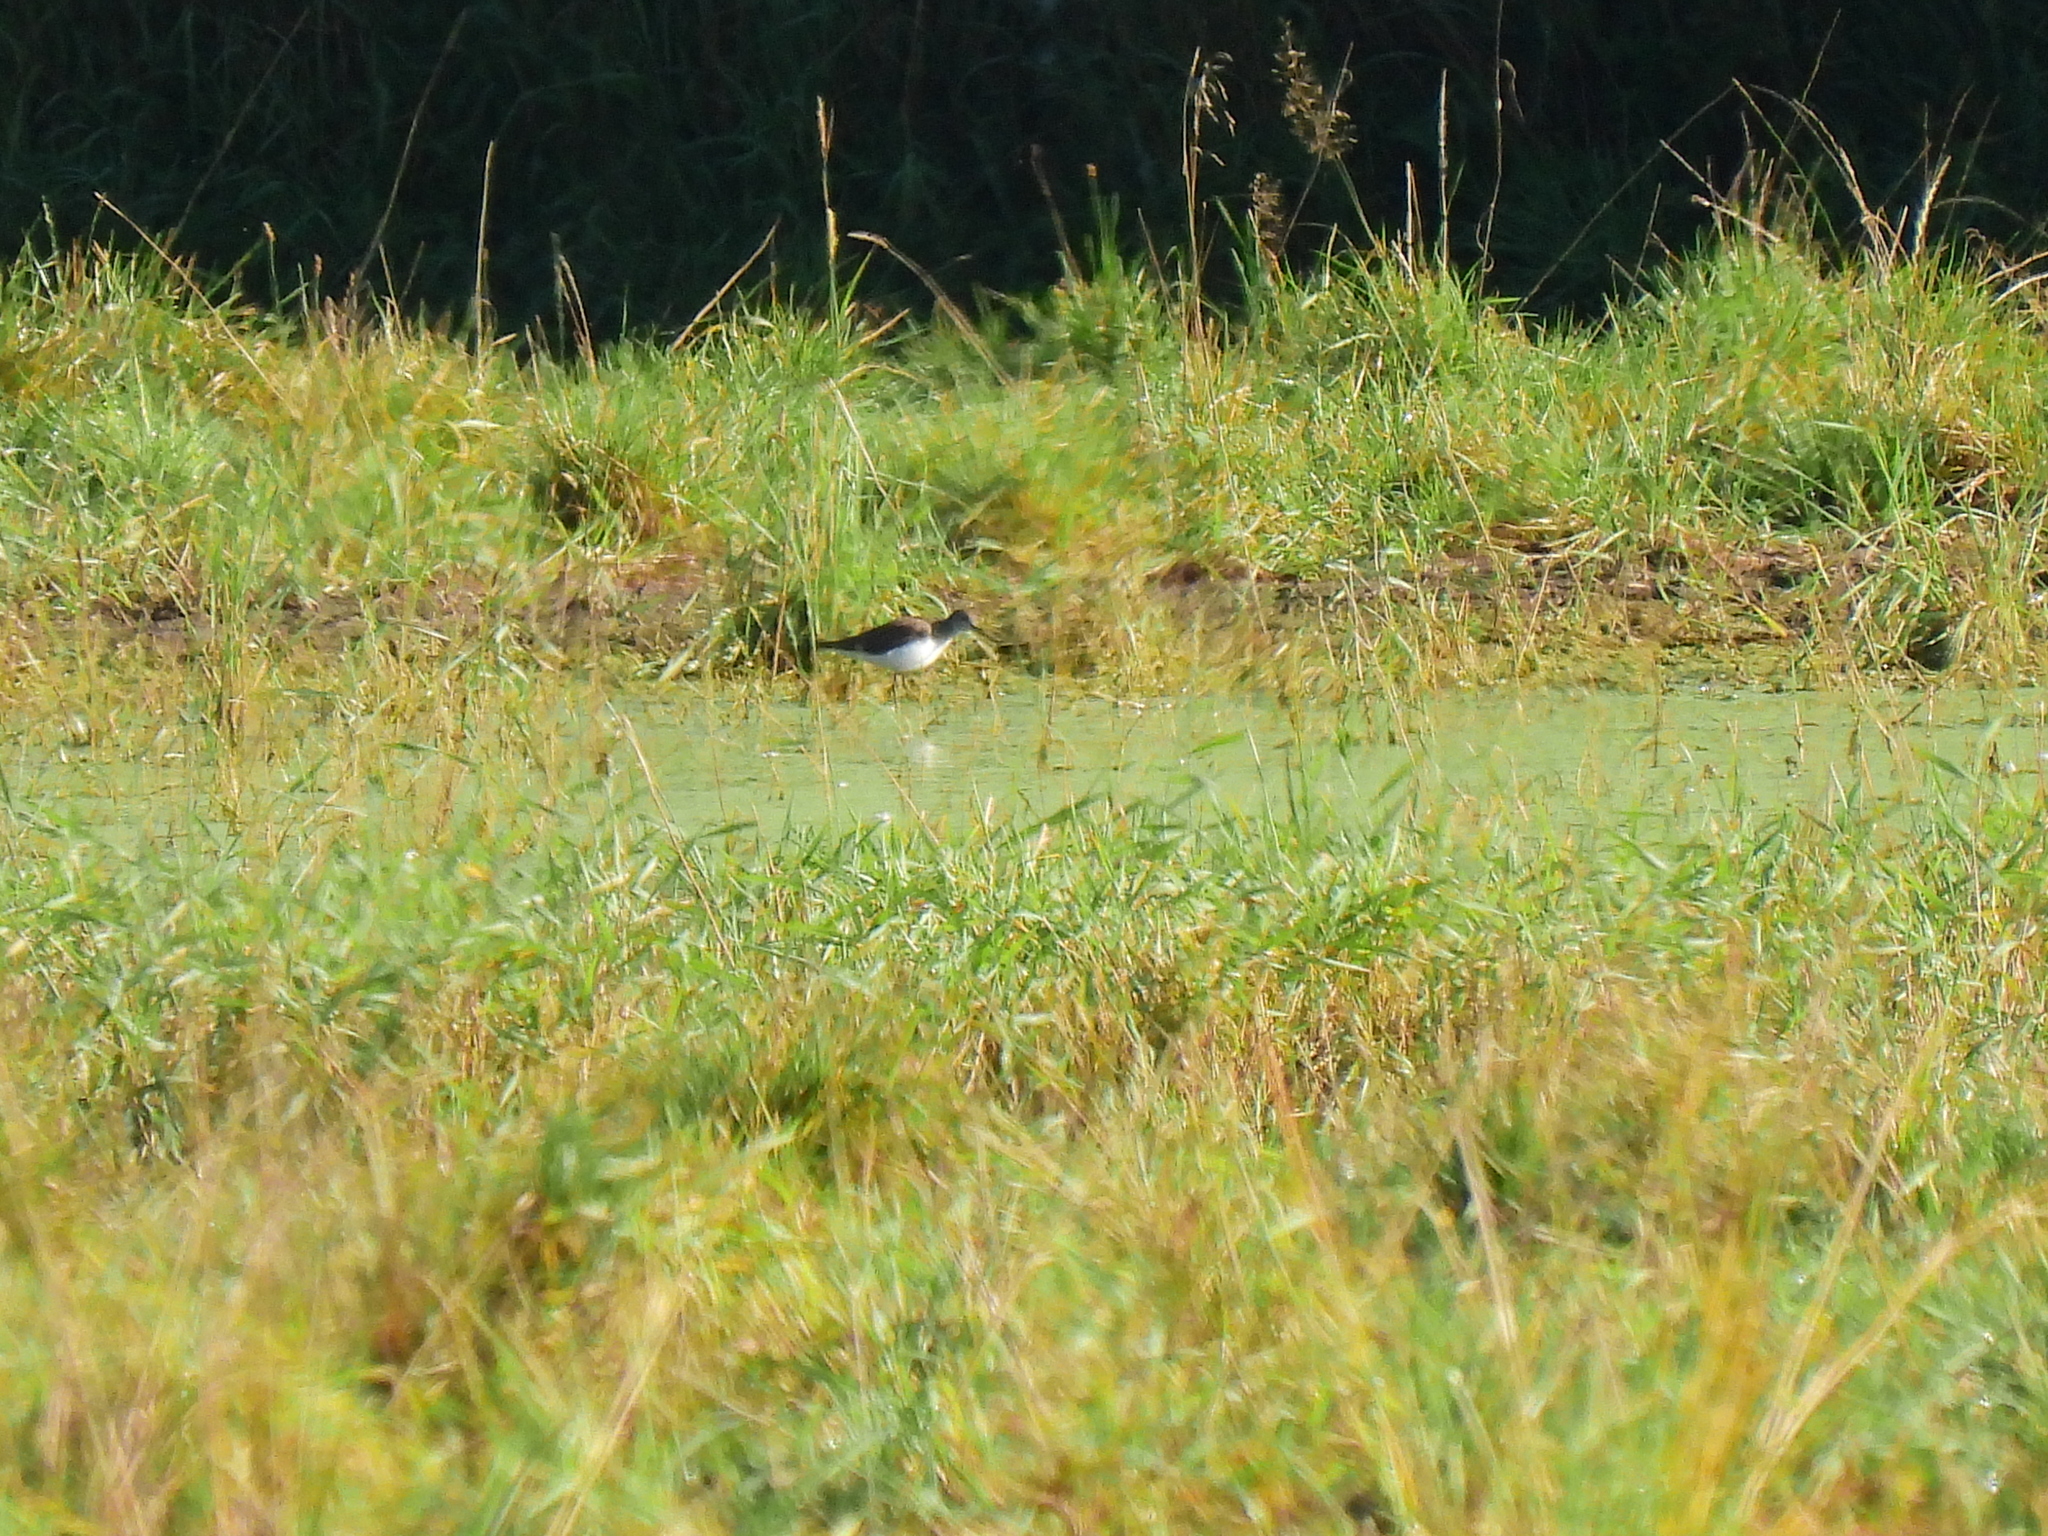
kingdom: Animalia
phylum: Chordata
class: Aves
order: Charadriiformes
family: Scolopacidae
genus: Tringa
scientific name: Tringa ochropus
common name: Green sandpiper
